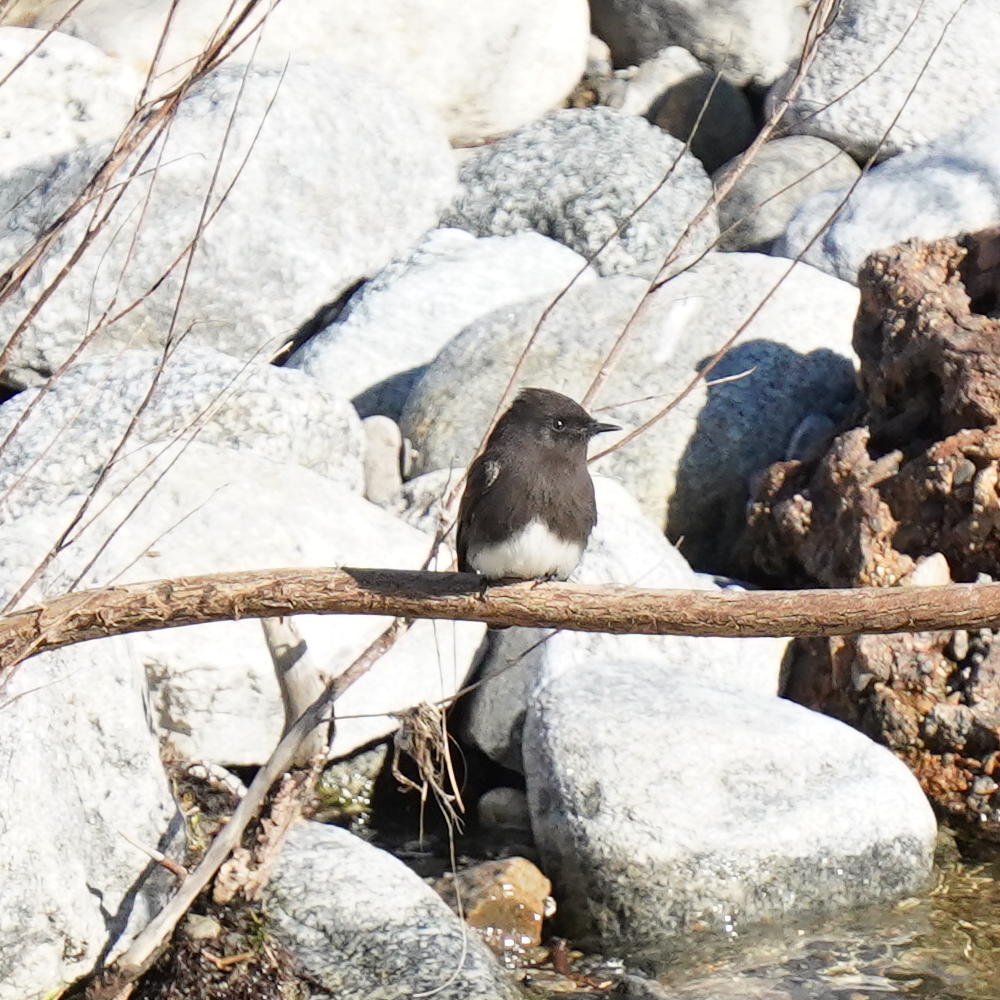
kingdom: Animalia
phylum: Chordata
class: Aves
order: Passeriformes
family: Tyrannidae
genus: Sayornis
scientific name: Sayornis nigricans
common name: Black phoebe
